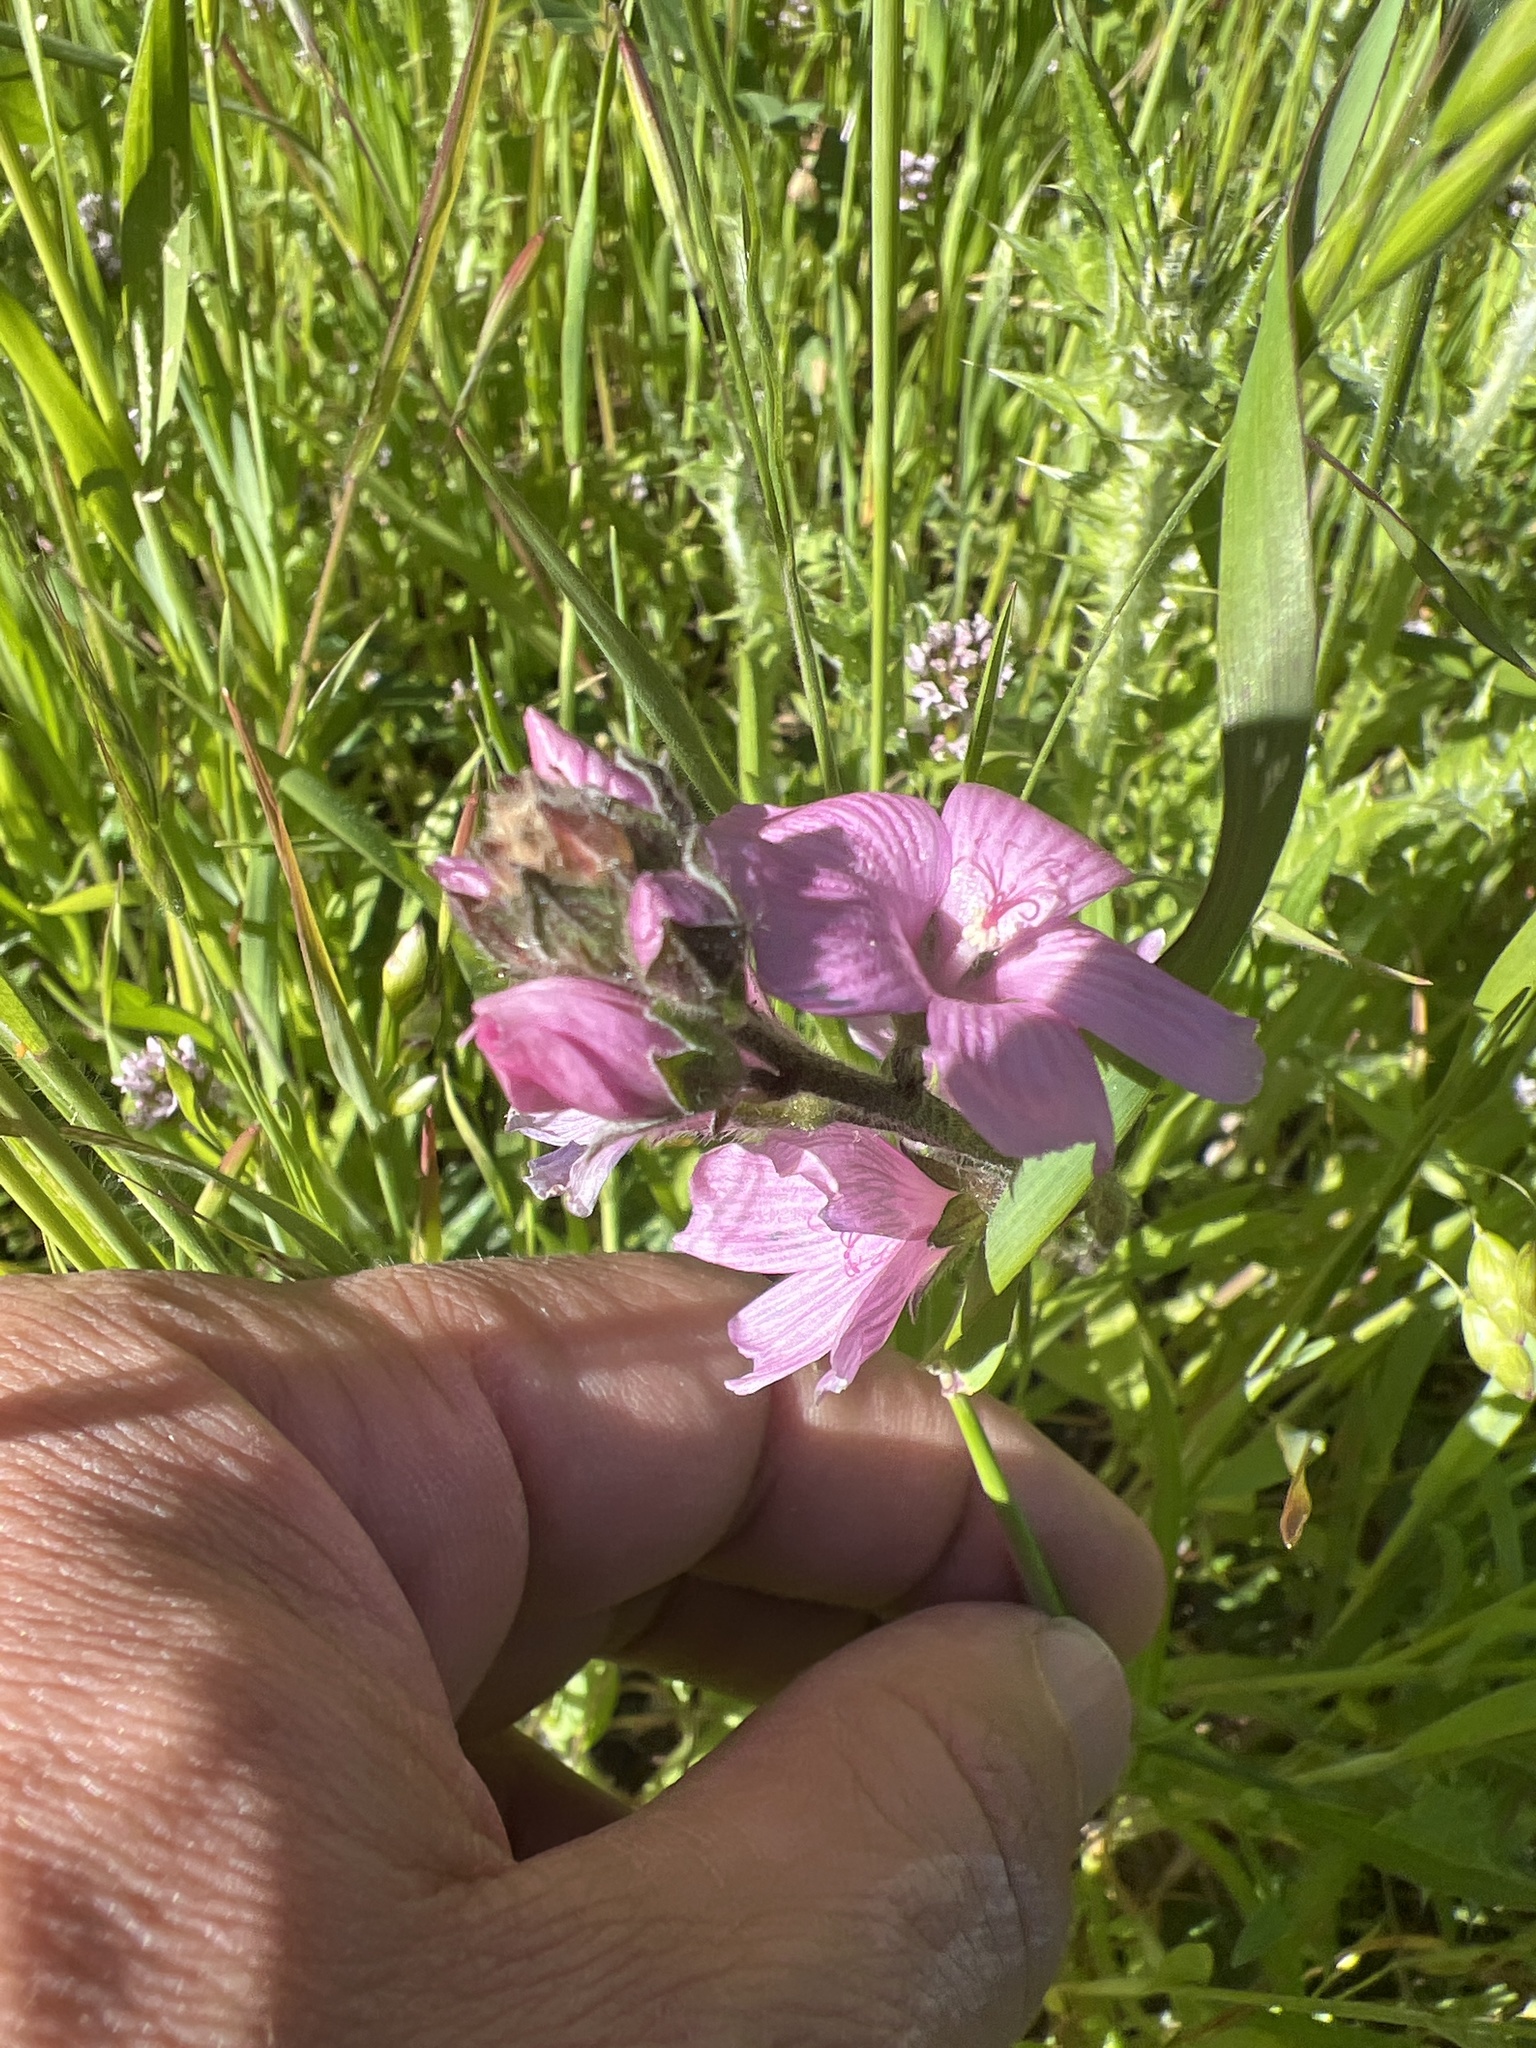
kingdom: Plantae
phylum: Tracheophyta
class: Magnoliopsida
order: Malvales
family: Malvaceae
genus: Sidalcea
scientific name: Sidalcea malviflora
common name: Greek mallow
